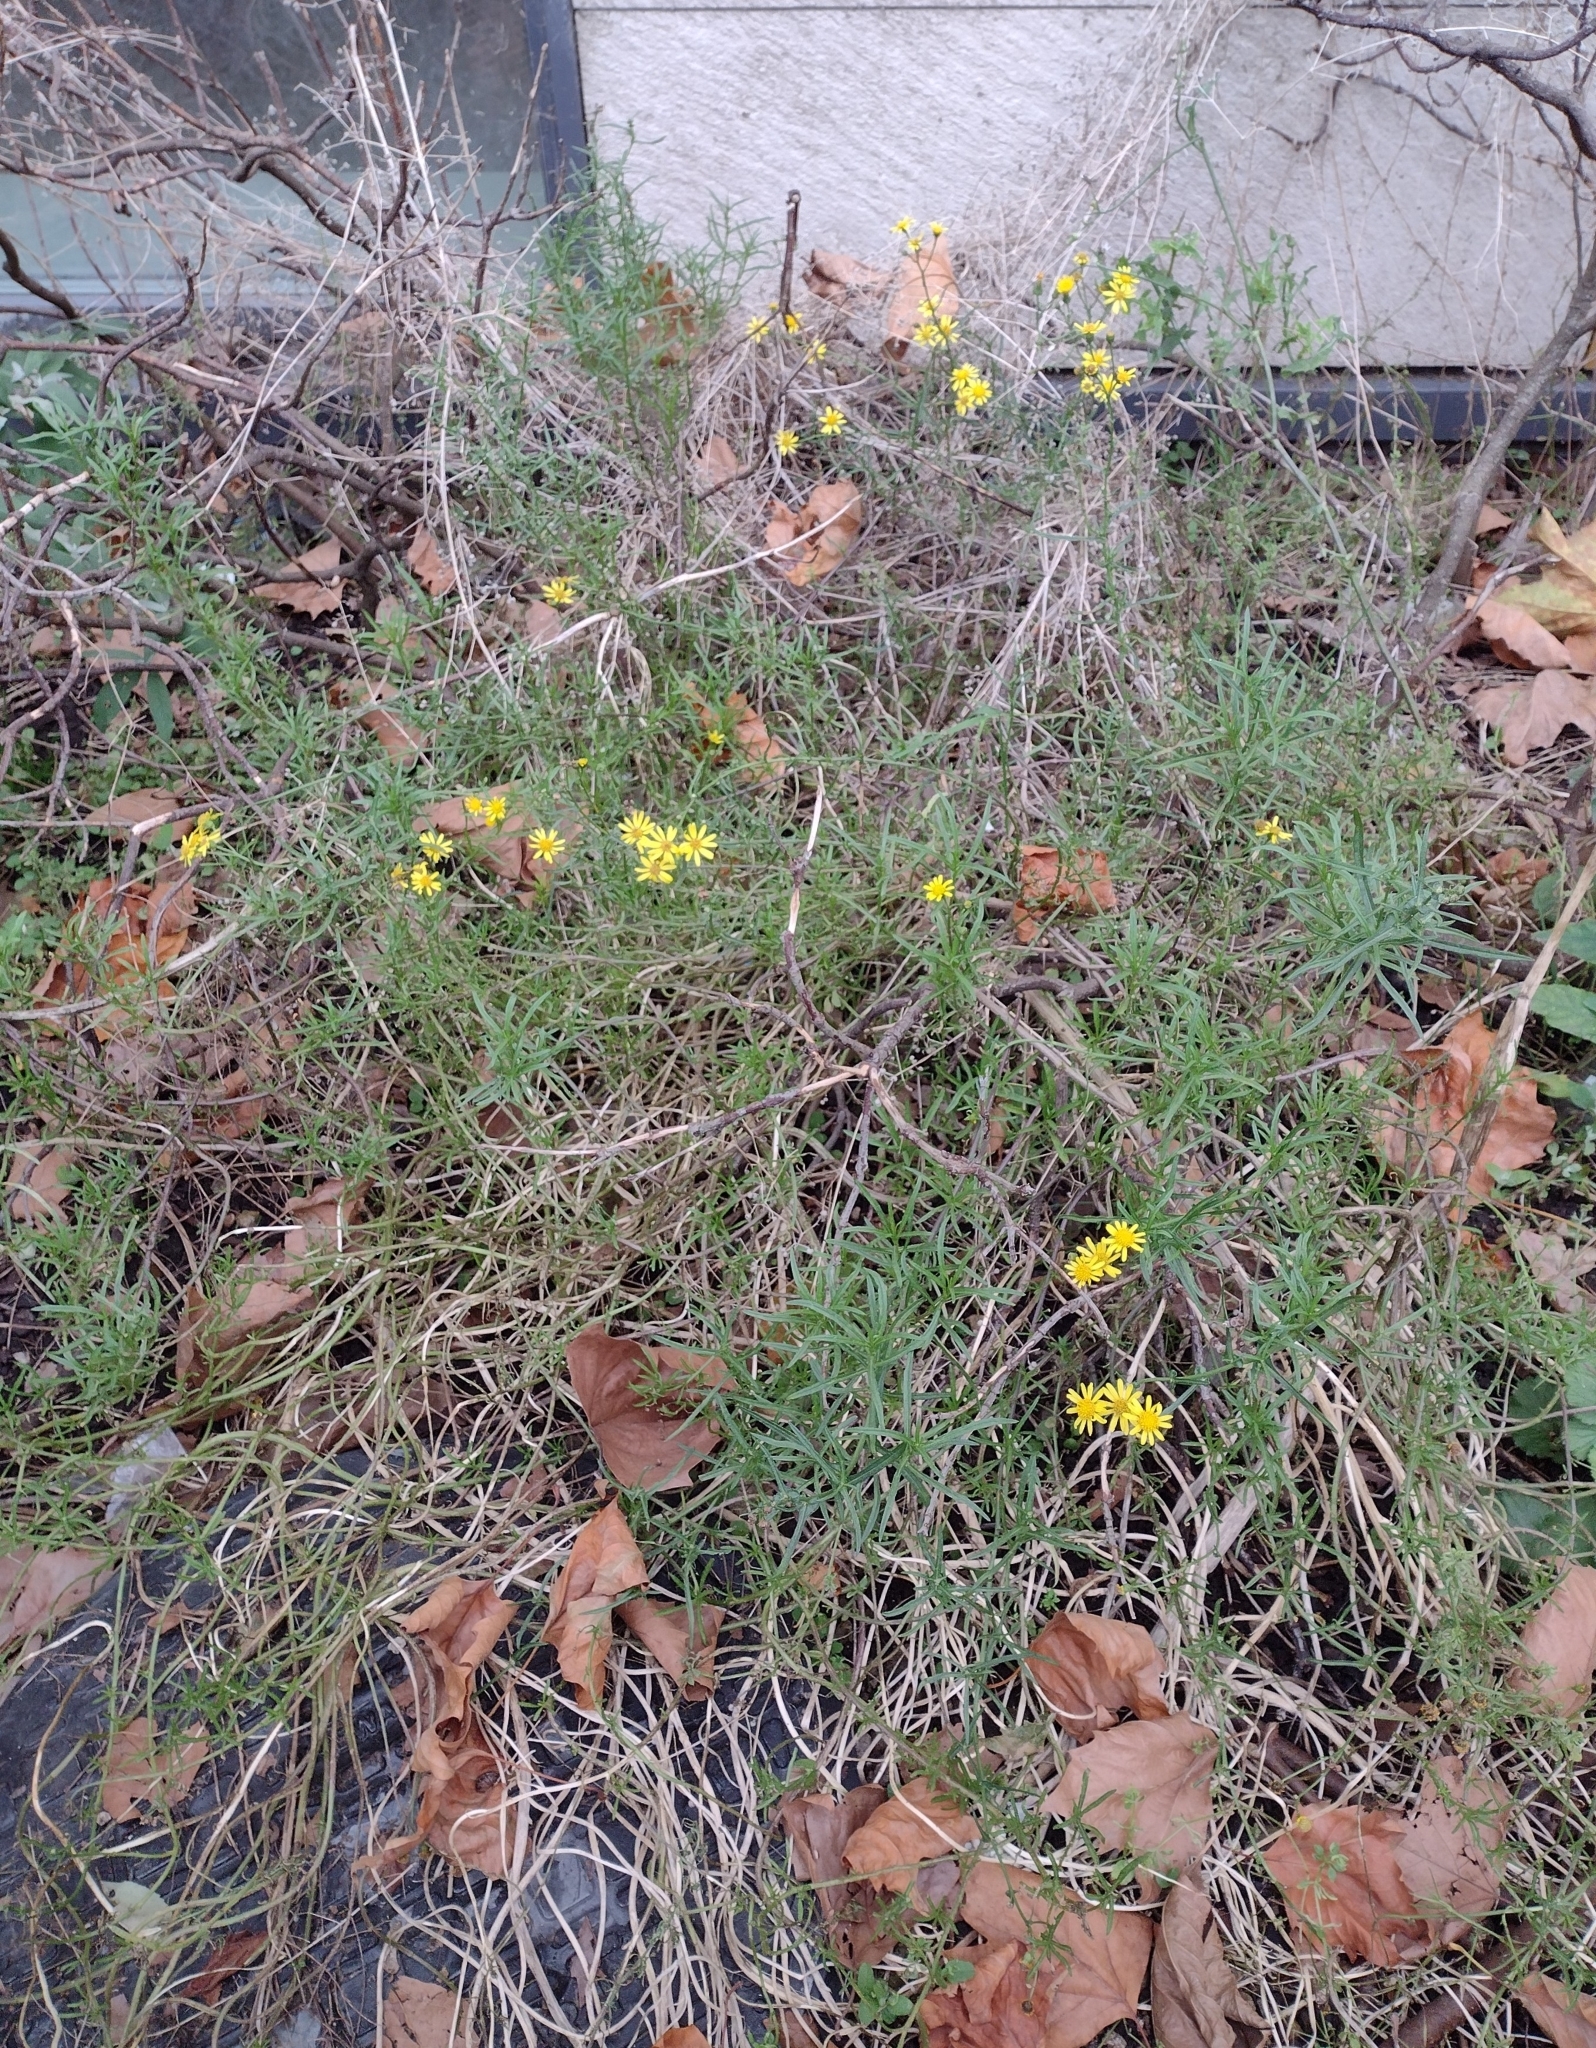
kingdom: Plantae
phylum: Tracheophyta
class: Magnoliopsida
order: Asterales
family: Asteraceae
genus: Senecio
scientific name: Senecio inaequidens
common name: Narrow-leaved ragwort
